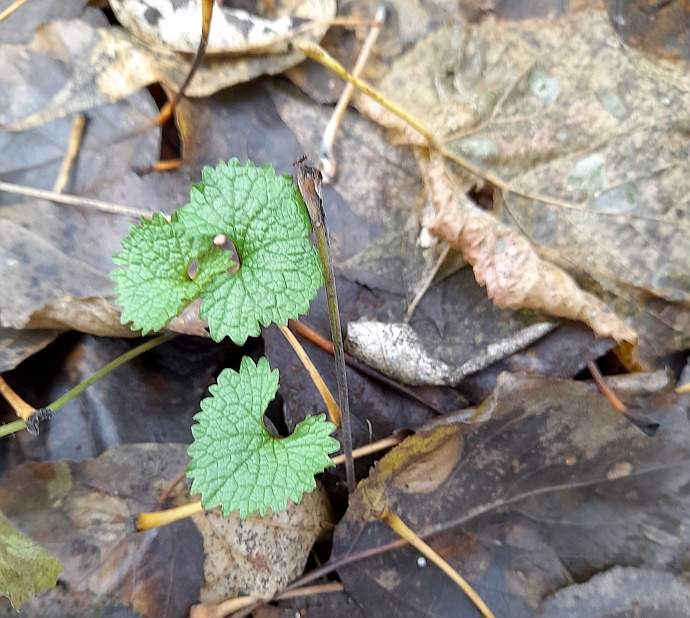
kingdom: Plantae
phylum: Tracheophyta
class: Magnoliopsida
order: Brassicales
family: Brassicaceae
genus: Alliaria
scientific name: Alliaria petiolata
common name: Garlic mustard
